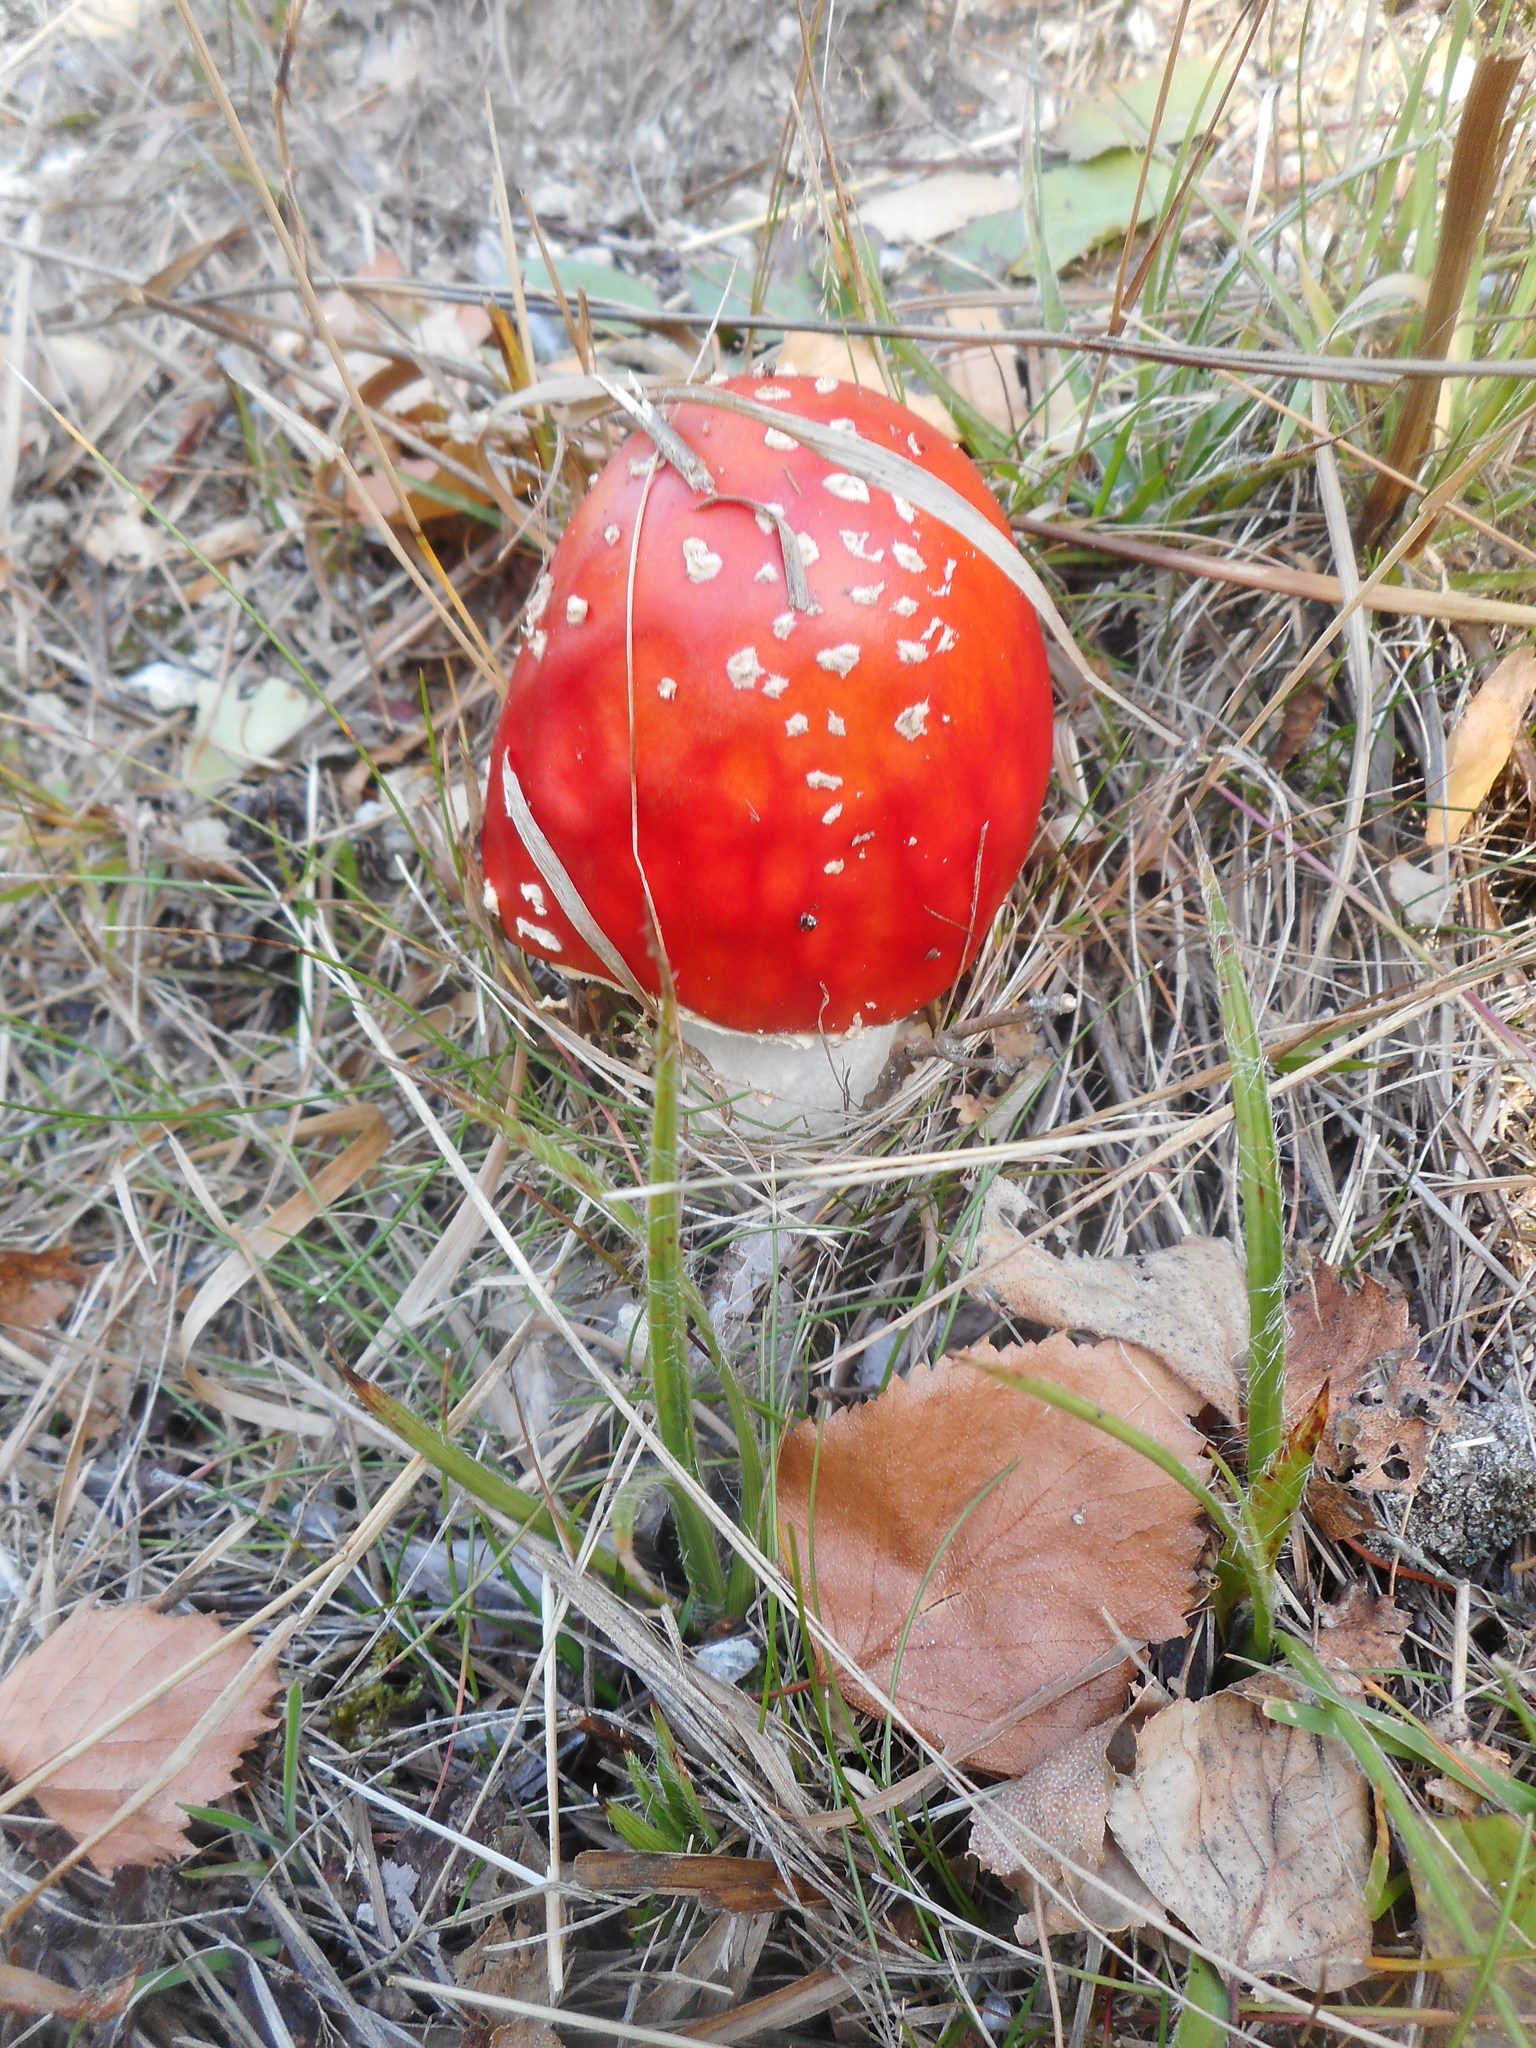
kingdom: Fungi
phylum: Basidiomycota
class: Agaricomycetes
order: Agaricales
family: Amanitaceae
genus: Amanita
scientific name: Amanita muscaria
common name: Fly agaric
